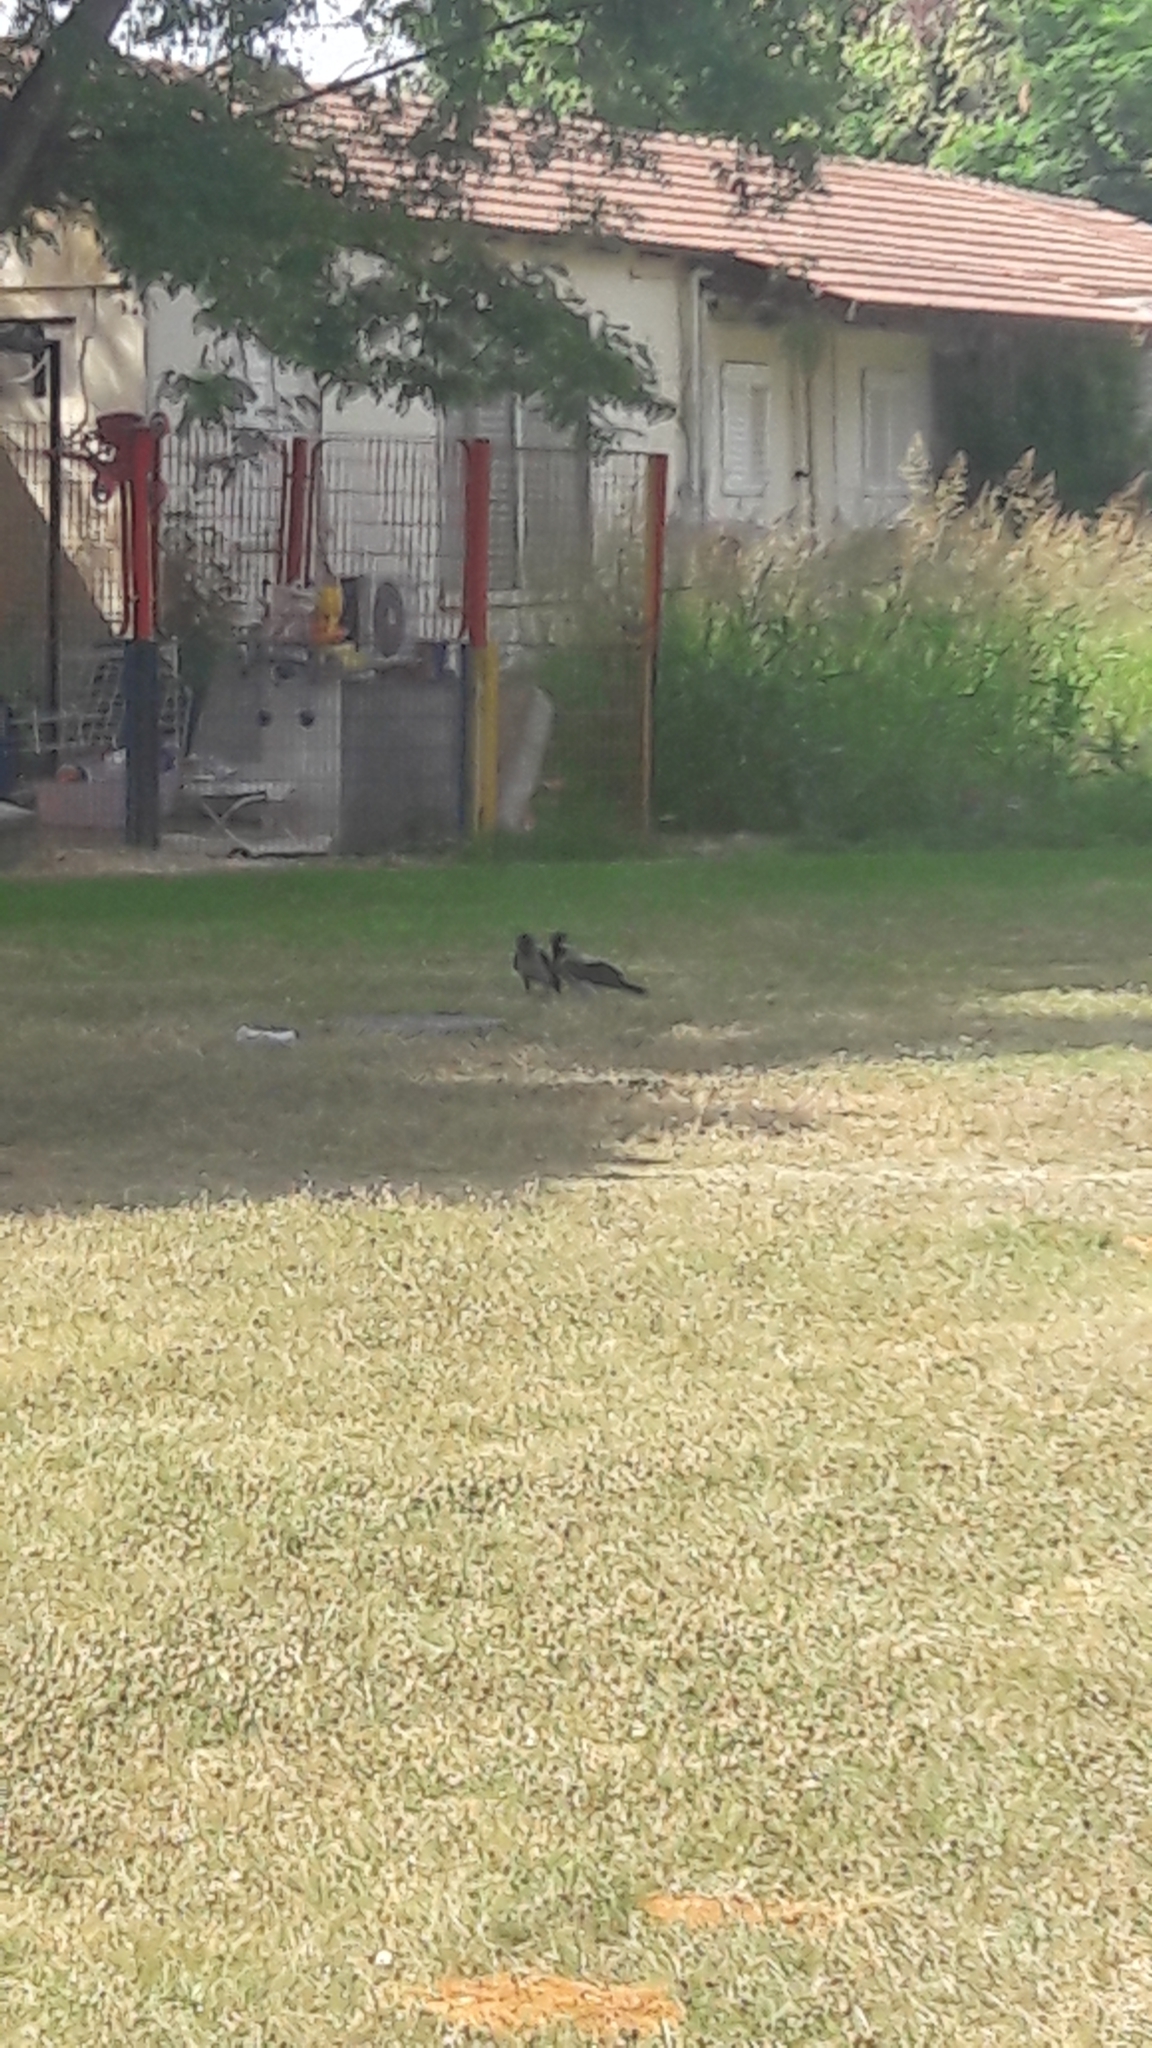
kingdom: Animalia
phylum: Chordata
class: Aves
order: Passeriformes
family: Corvidae
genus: Corvus
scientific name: Corvus cornix
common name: Hooded crow
